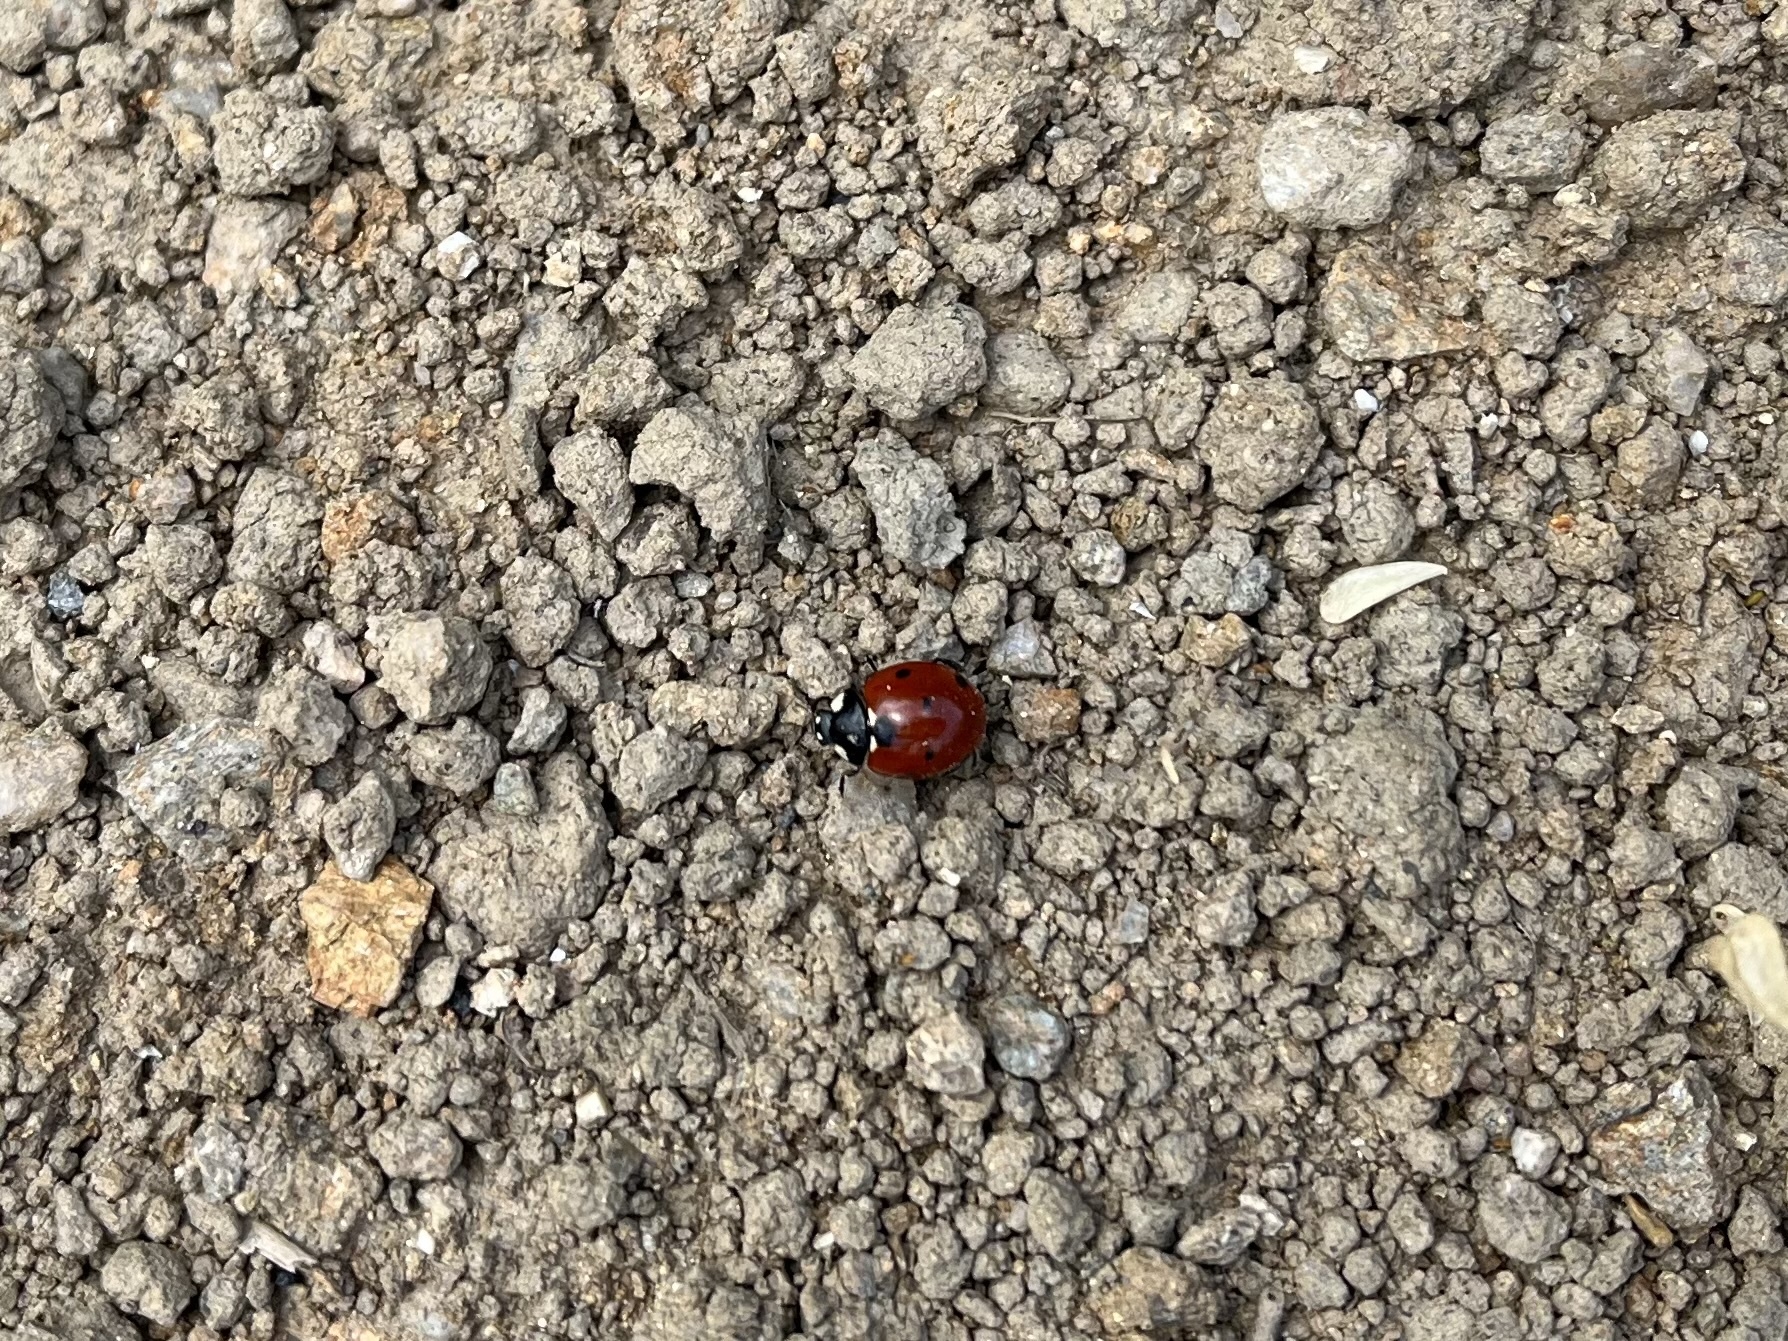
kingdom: Animalia
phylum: Arthropoda
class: Insecta
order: Coleoptera
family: Coccinellidae
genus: Coccinella
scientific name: Coccinella septempunctata
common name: Sevenspotted lady beetle
